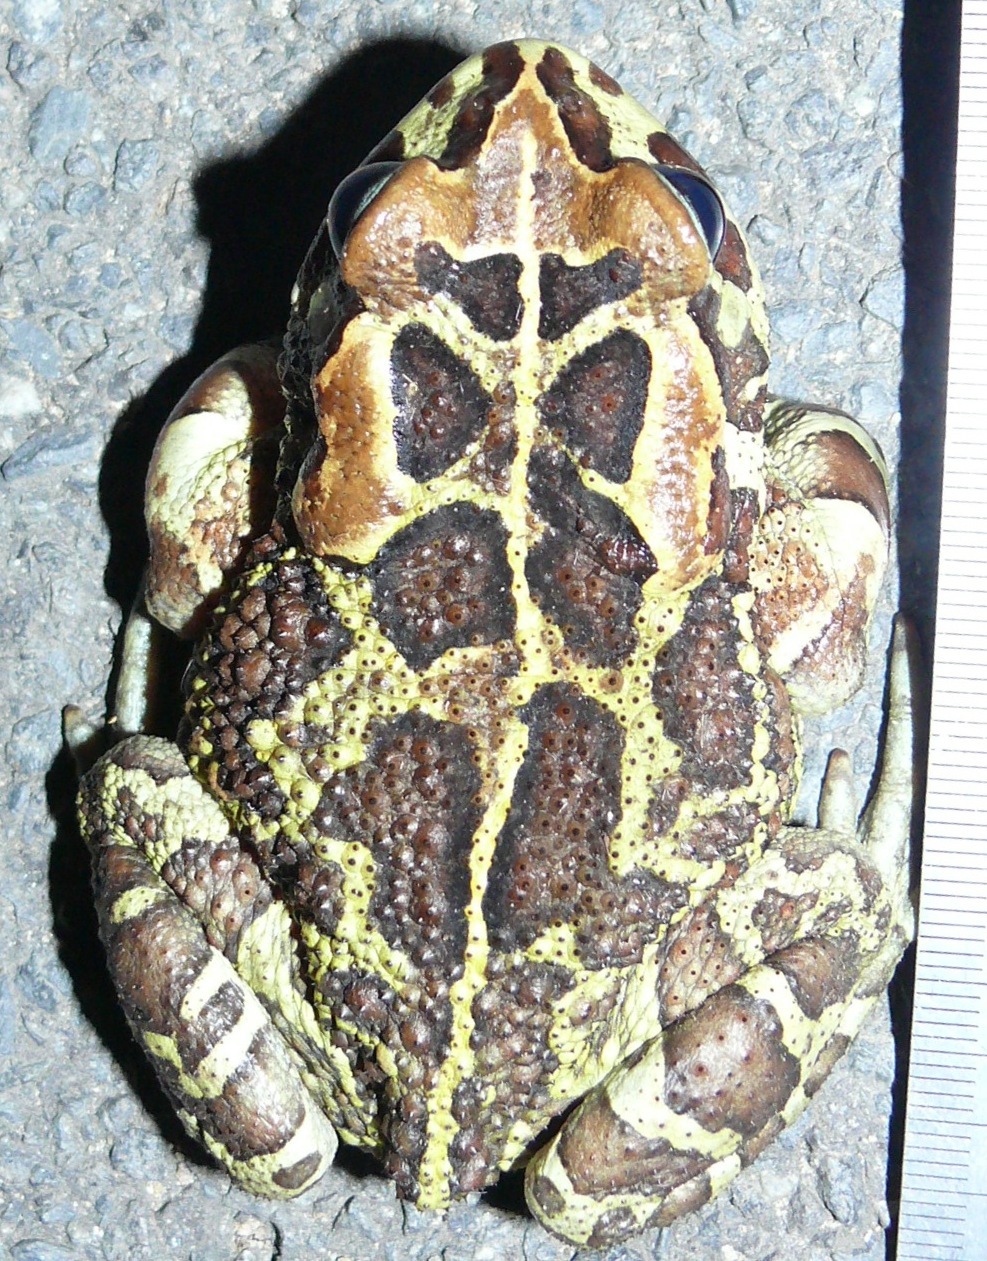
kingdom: Animalia
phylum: Chordata
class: Amphibia
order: Anura
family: Bufonidae
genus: Sclerophrys
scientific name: Sclerophrys pantherina
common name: Panther toad
